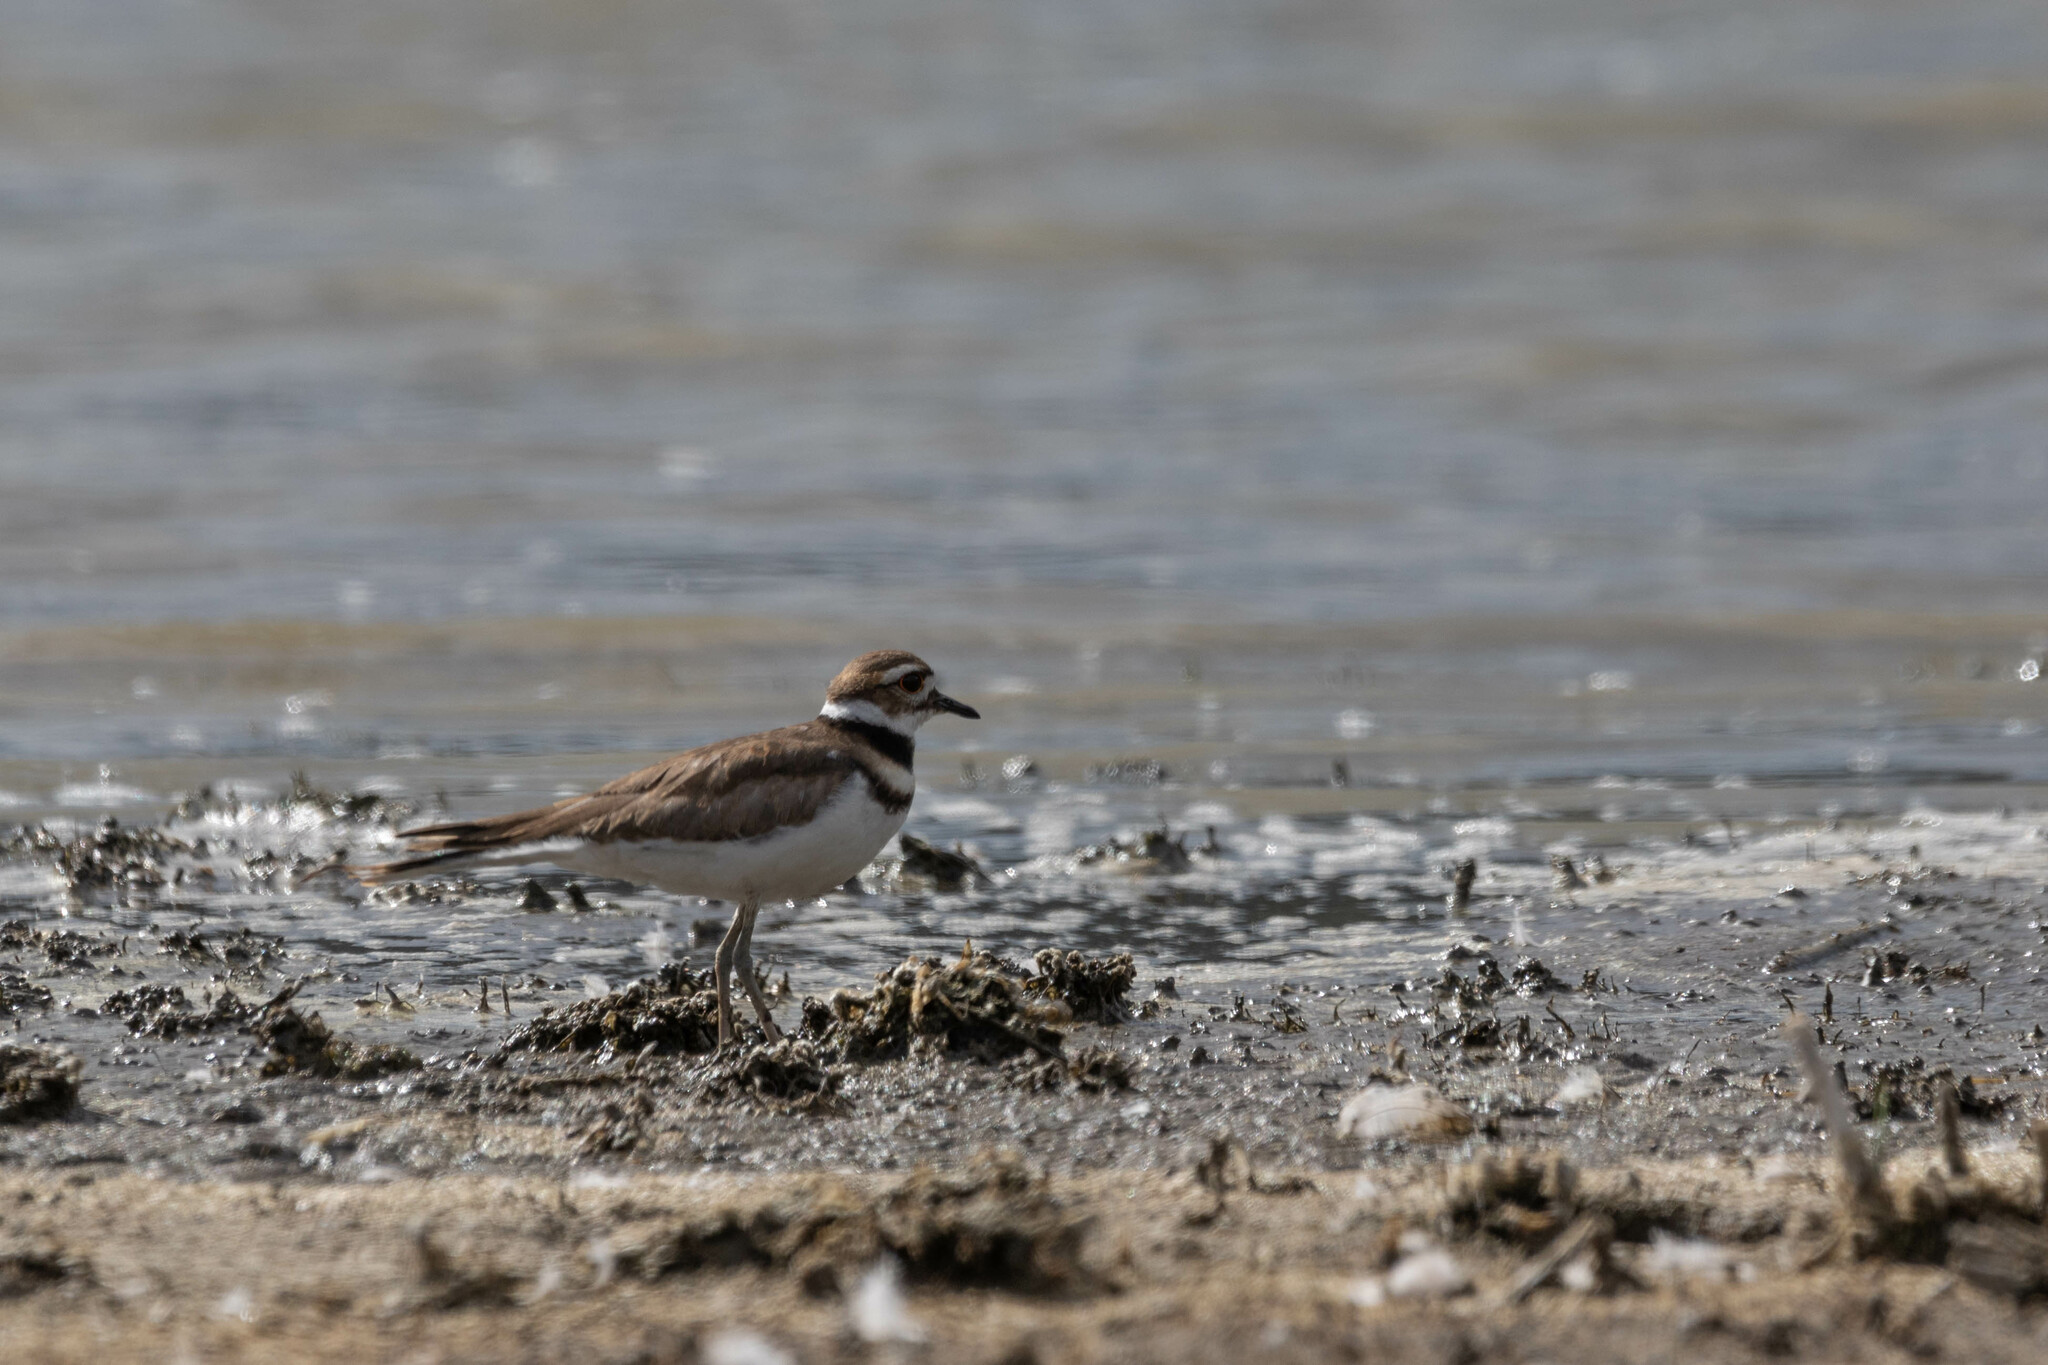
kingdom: Animalia
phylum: Chordata
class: Aves
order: Charadriiformes
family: Charadriidae
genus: Charadrius
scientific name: Charadrius vociferus
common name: Killdeer
